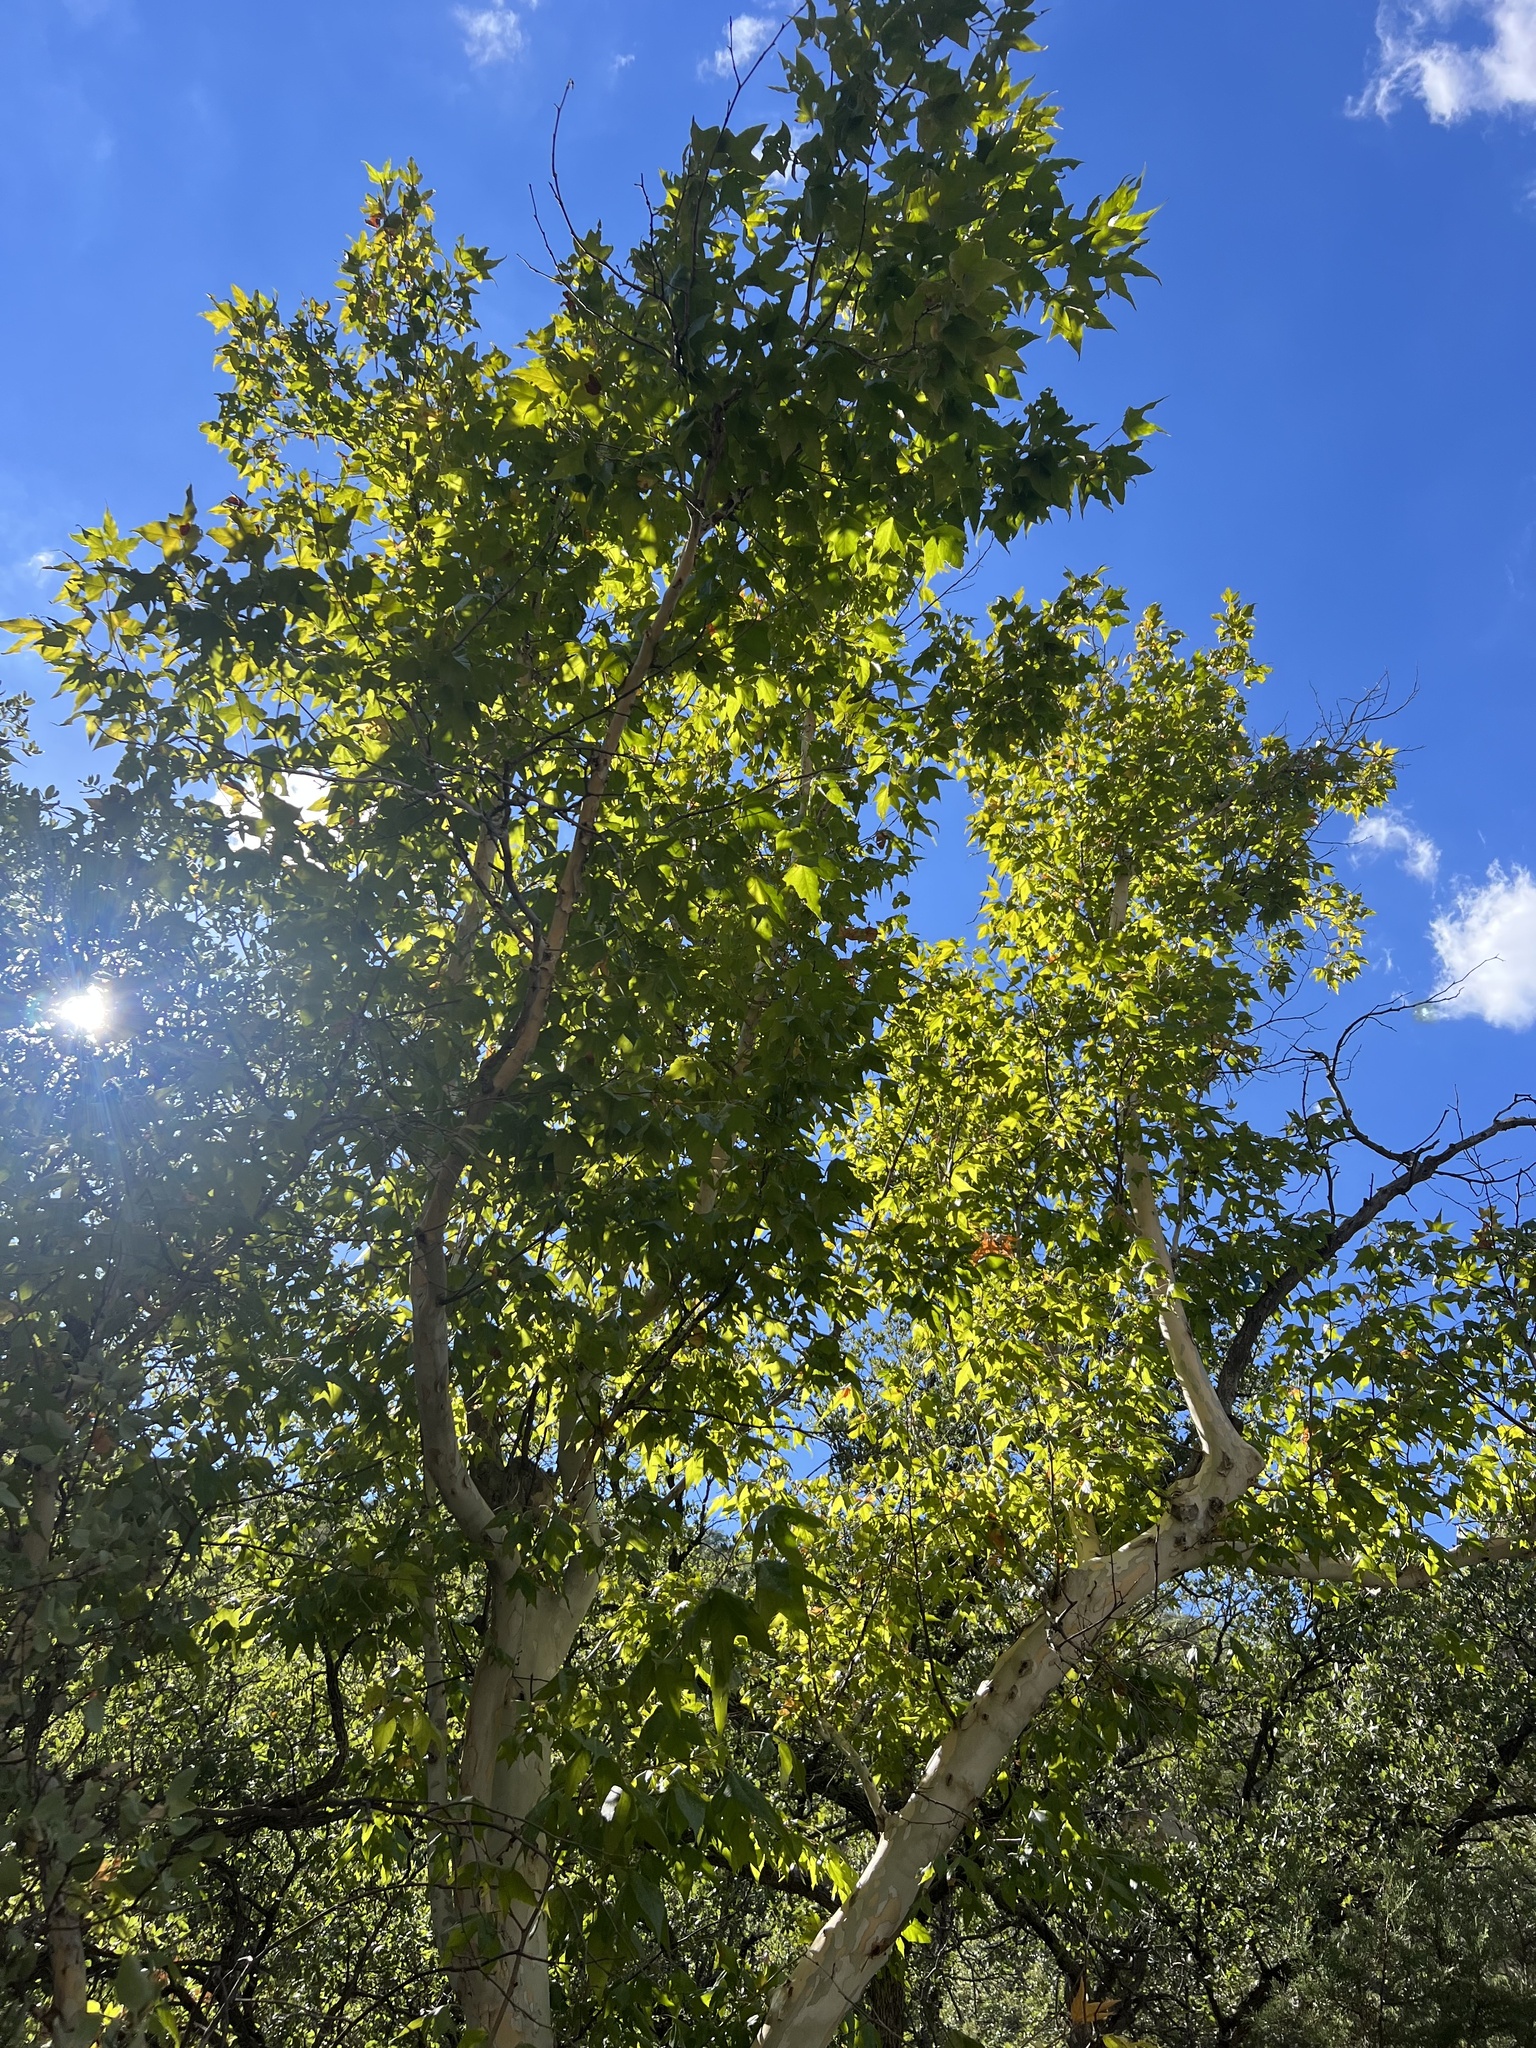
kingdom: Plantae
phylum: Tracheophyta
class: Magnoliopsida
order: Proteales
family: Platanaceae
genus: Platanus
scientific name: Platanus wrightii
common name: Arizona sycamore
